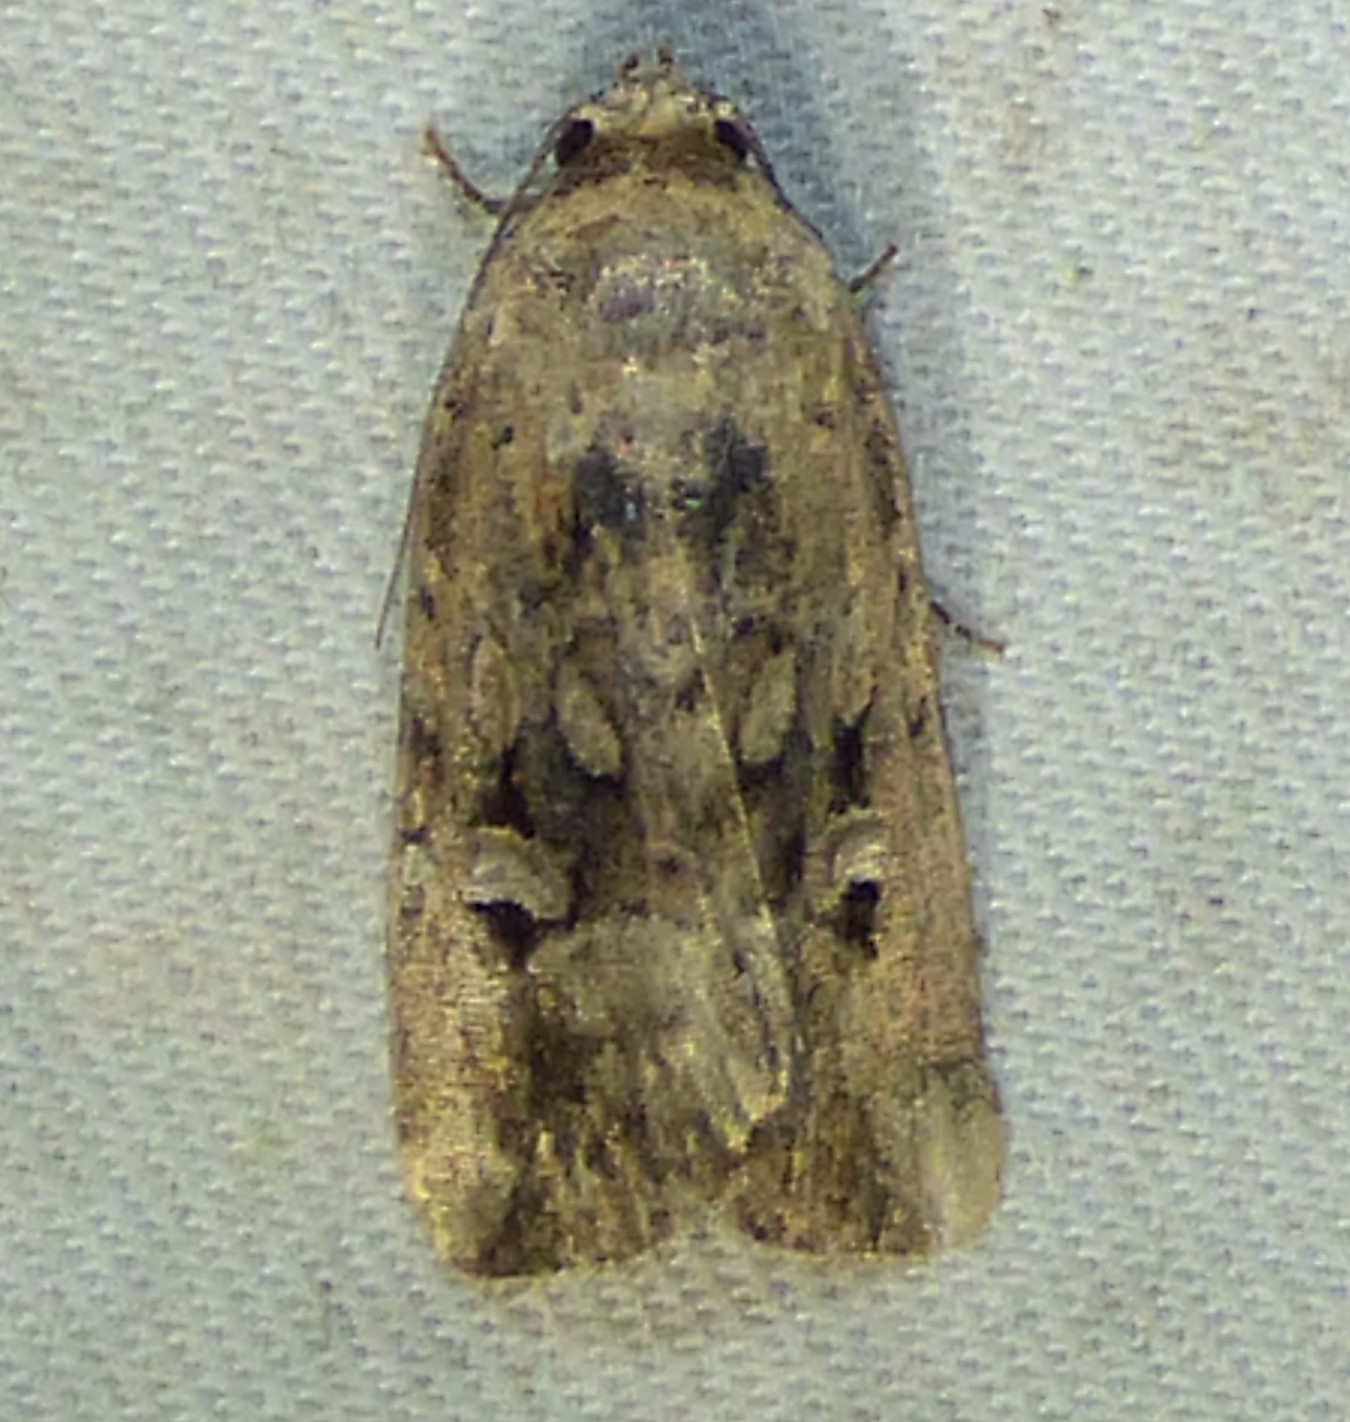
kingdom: Animalia
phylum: Arthropoda
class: Insecta
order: Lepidoptera
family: Noctuidae
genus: Elaphria
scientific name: Elaphria chalcedonia
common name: Chalcedony midget
